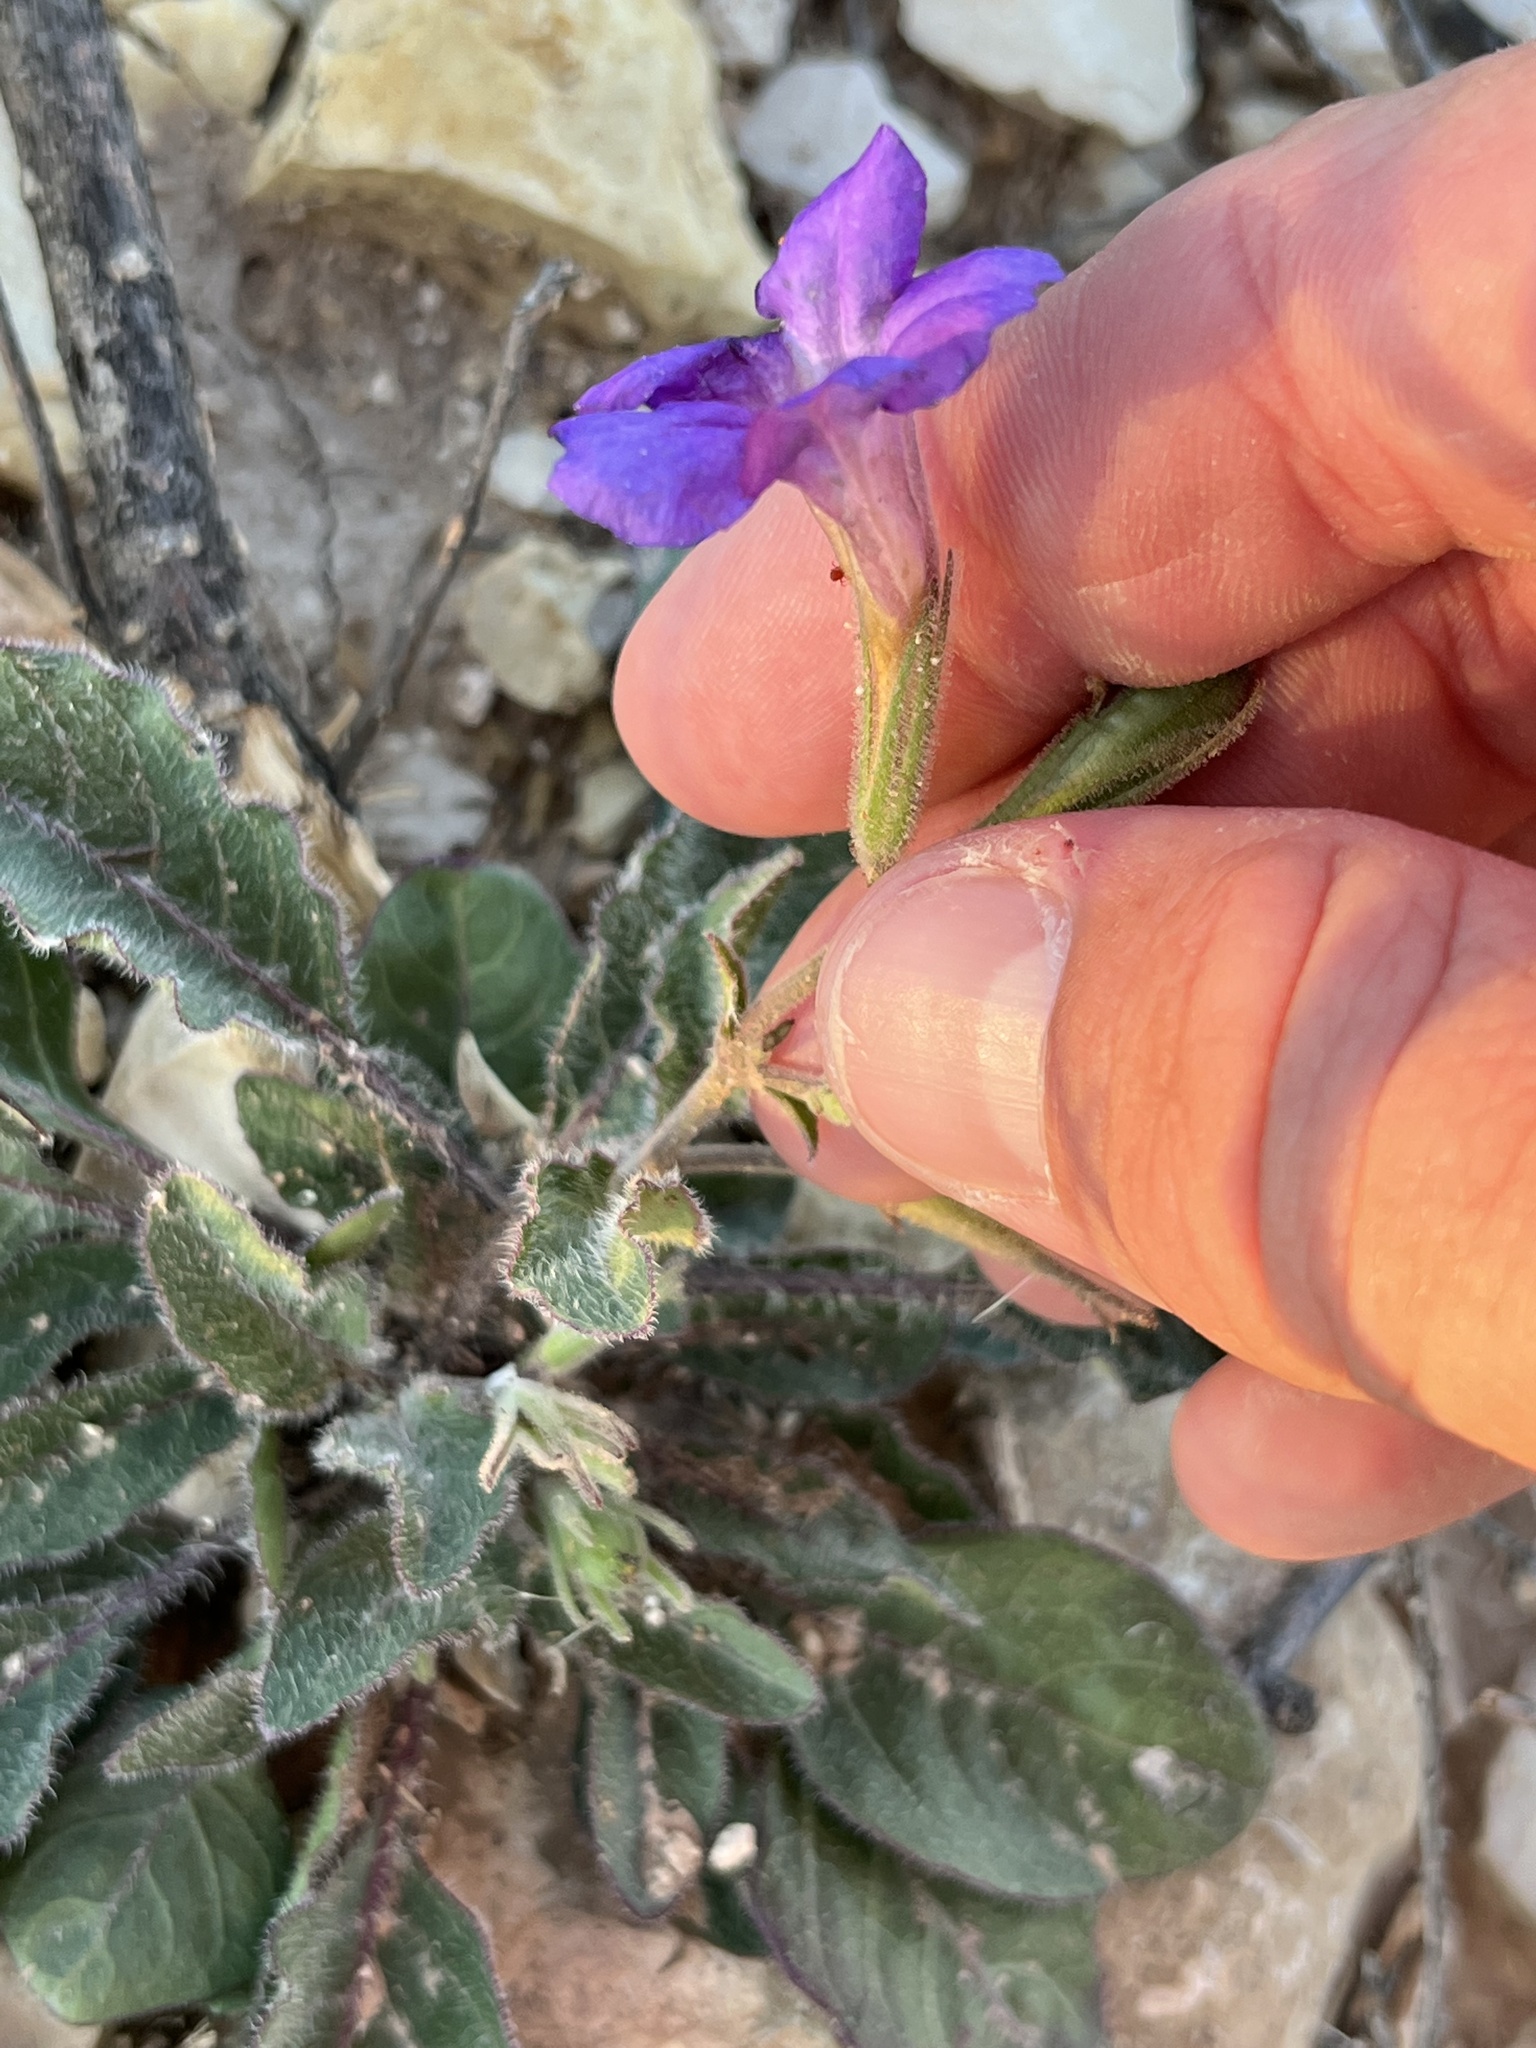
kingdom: Plantae
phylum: Tracheophyta
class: Magnoliopsida
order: Lamiales
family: Acanthaceae
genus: Ruellia
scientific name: Ruellia corzoi
